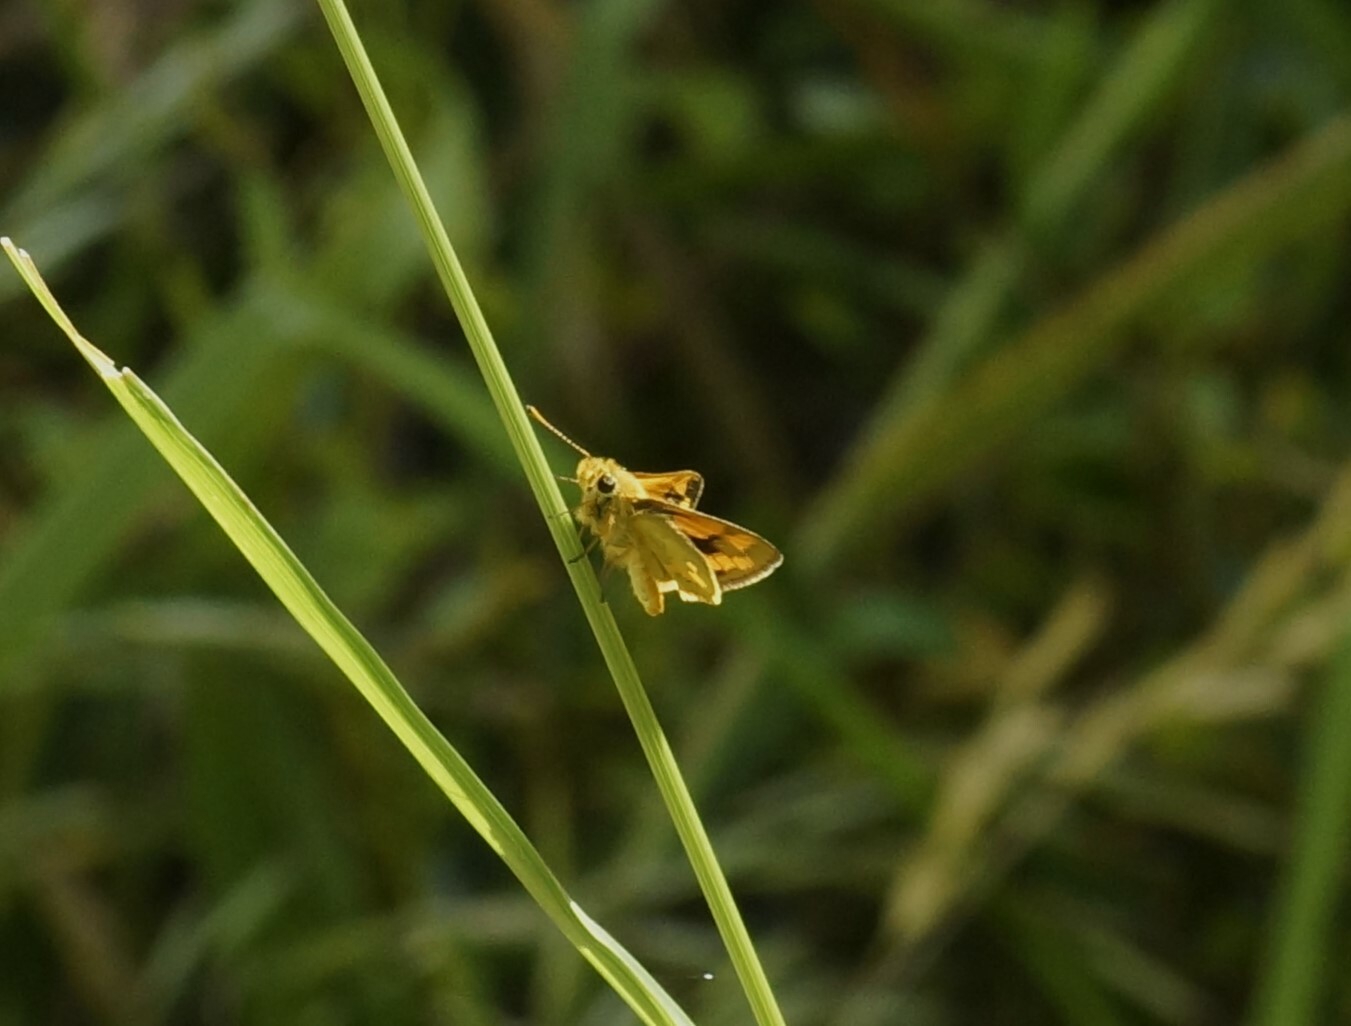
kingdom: Animalia
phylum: Arthropoda
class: Insecta
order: Lepidoptera
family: Hesperiidae
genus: Ocybadistes
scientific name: Ocybadistes walkeri
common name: Yellow-banded dart
